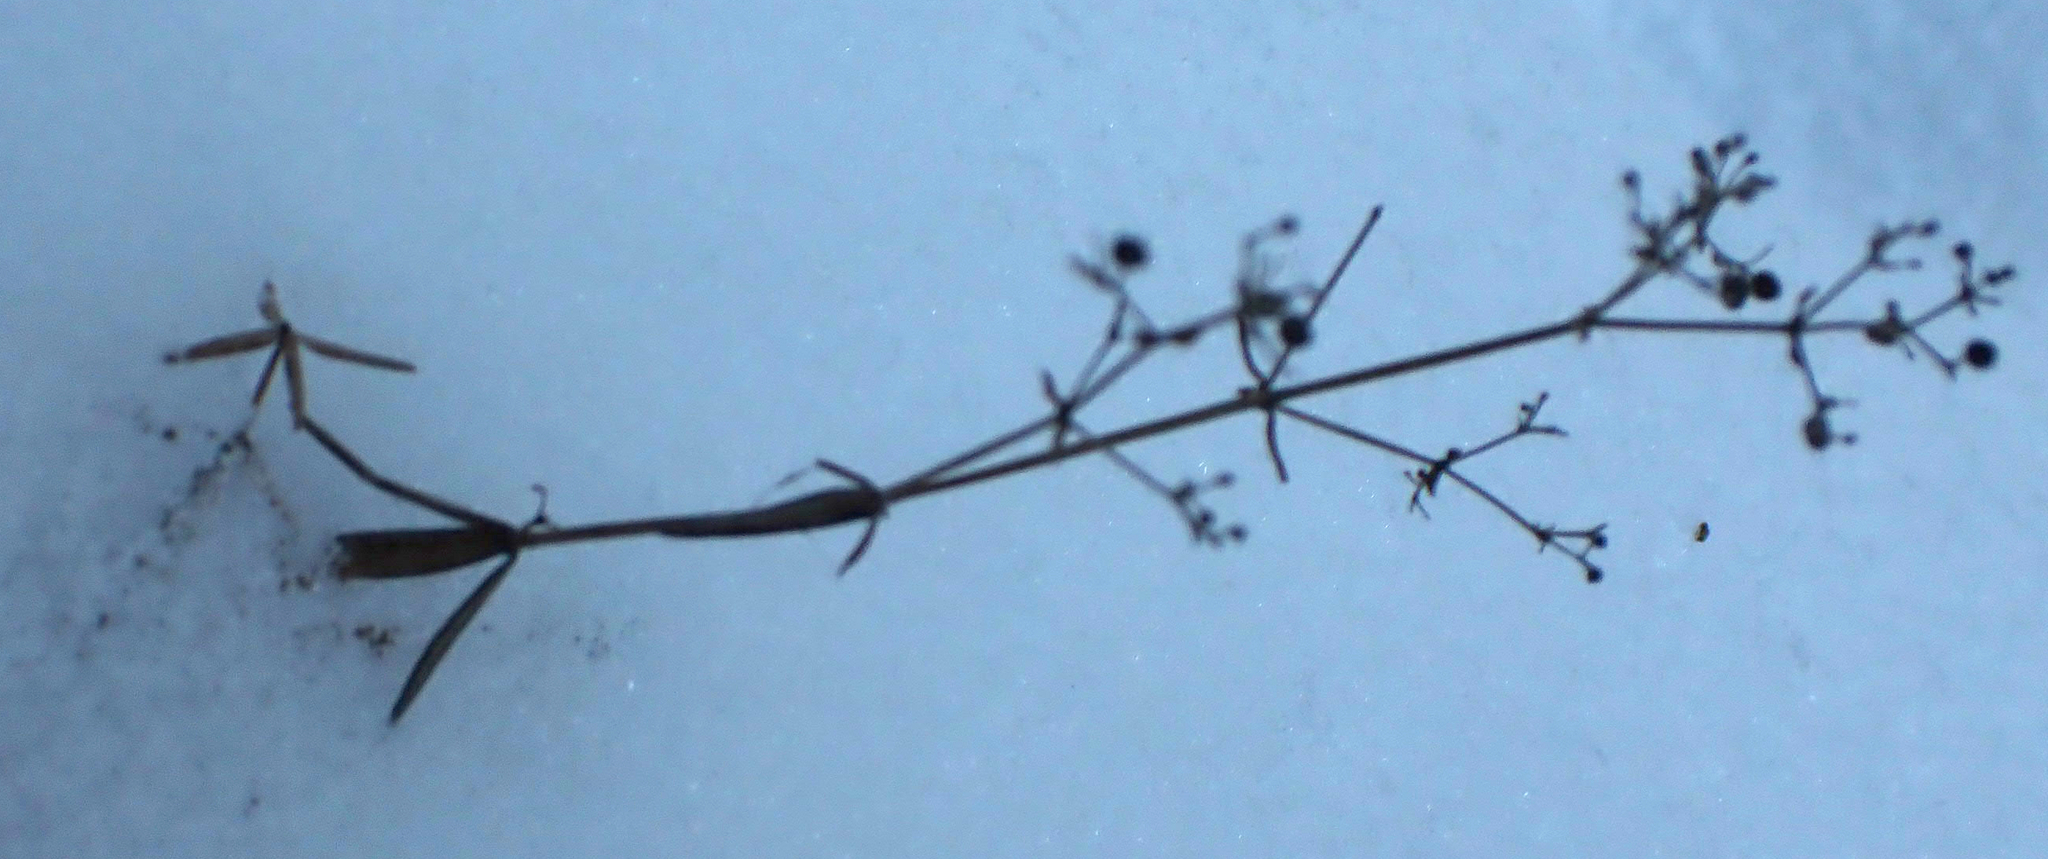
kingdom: Plantae
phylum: Tracheophyta
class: Magnoliopsida
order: Gentianales
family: Rubiaceae
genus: Galium
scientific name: Galium boreale
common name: Northern bedstraw
